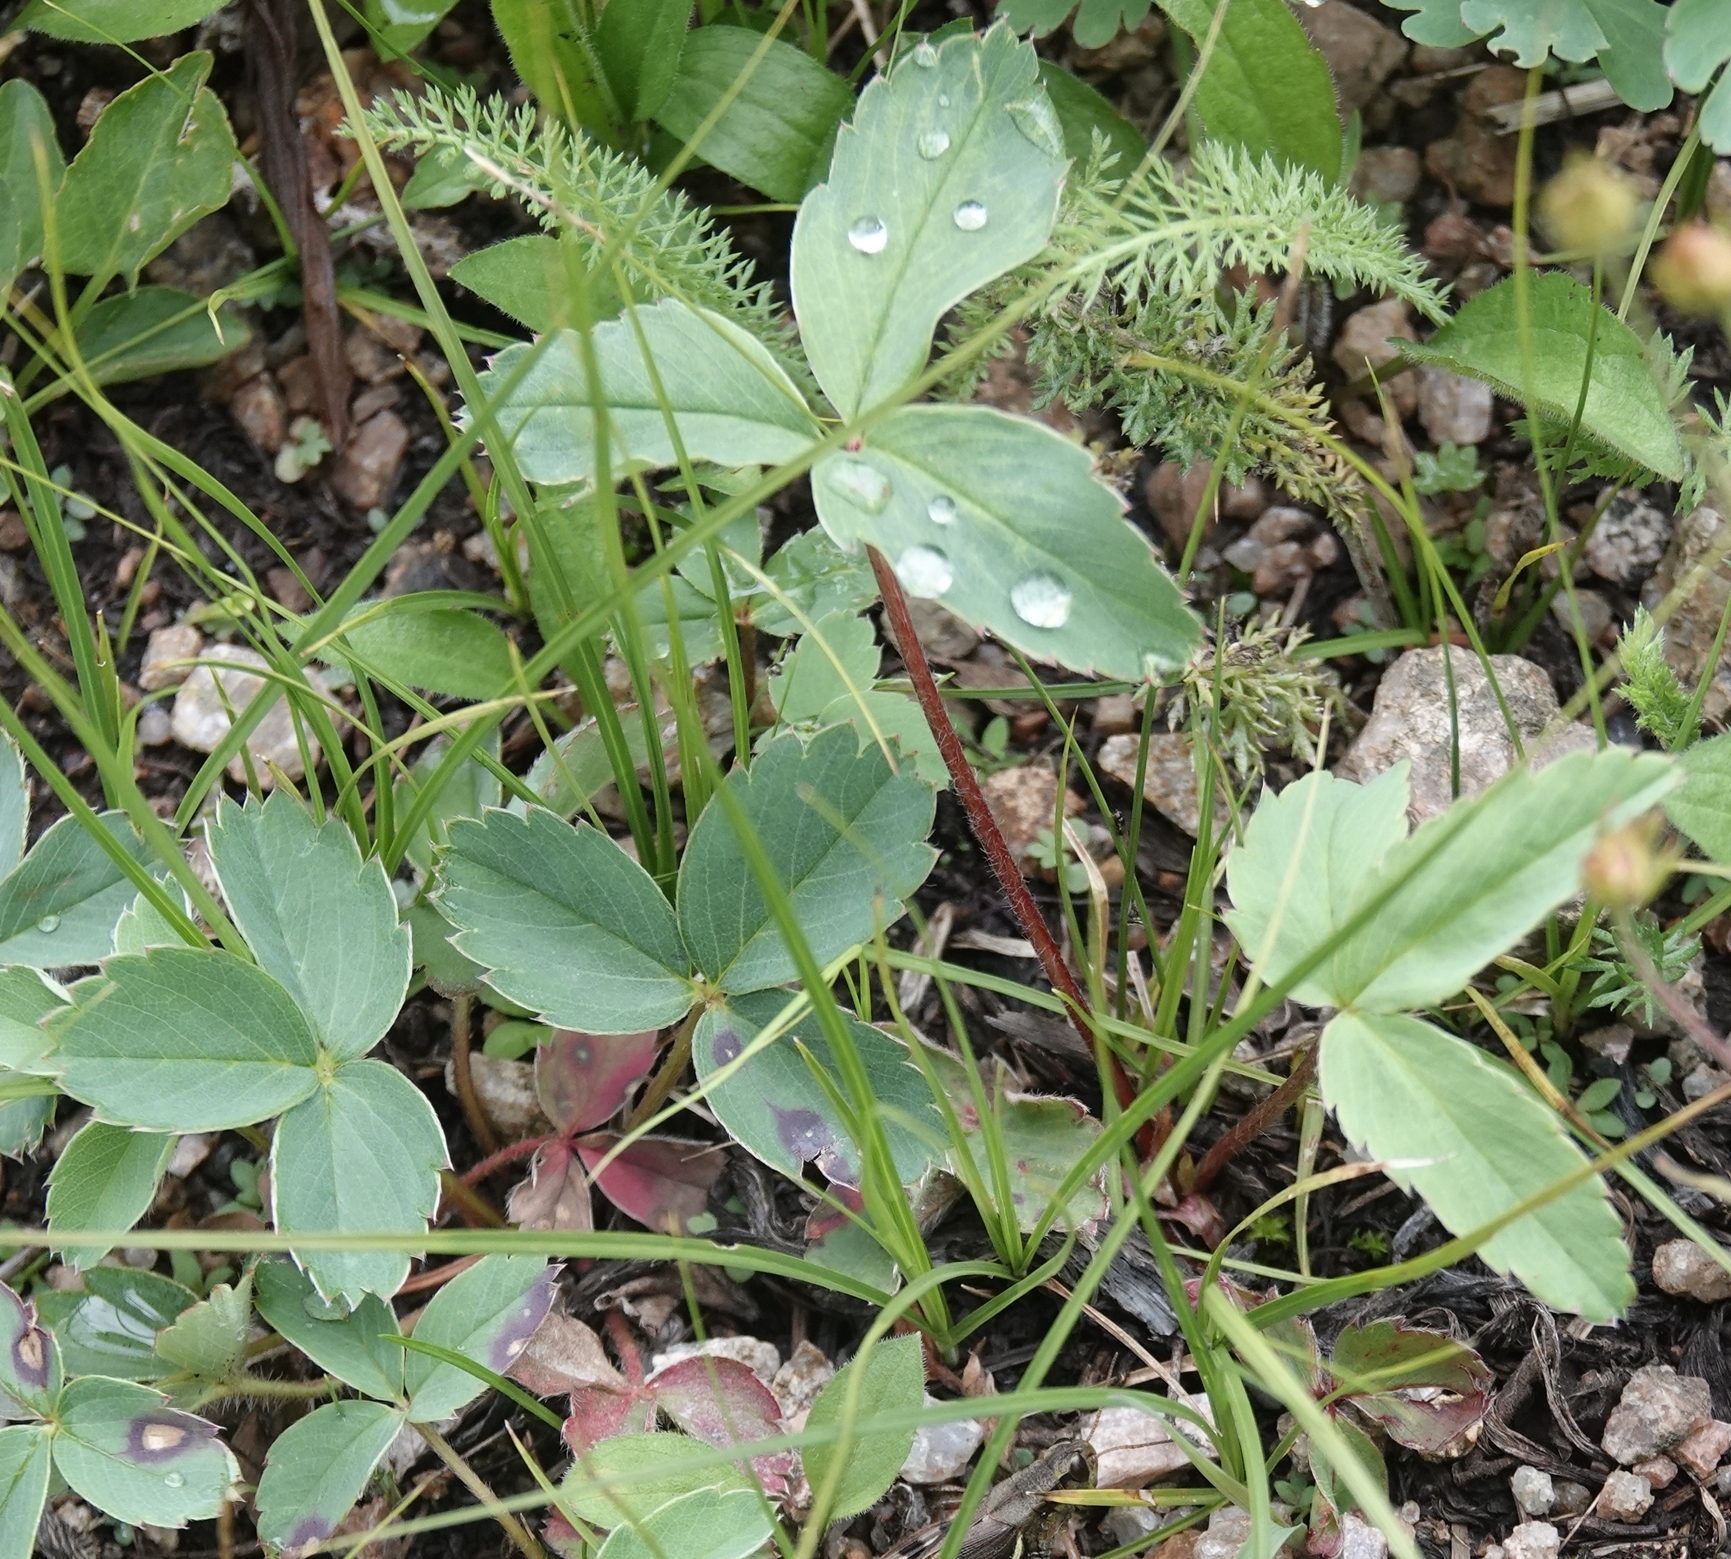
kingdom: Plantae
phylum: Tracheophyta
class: Magnoliopsida
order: Rosales
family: Rosaceae
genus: Fragaria
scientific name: Fragaria virginiana
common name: Thickleaved wild strawberry
